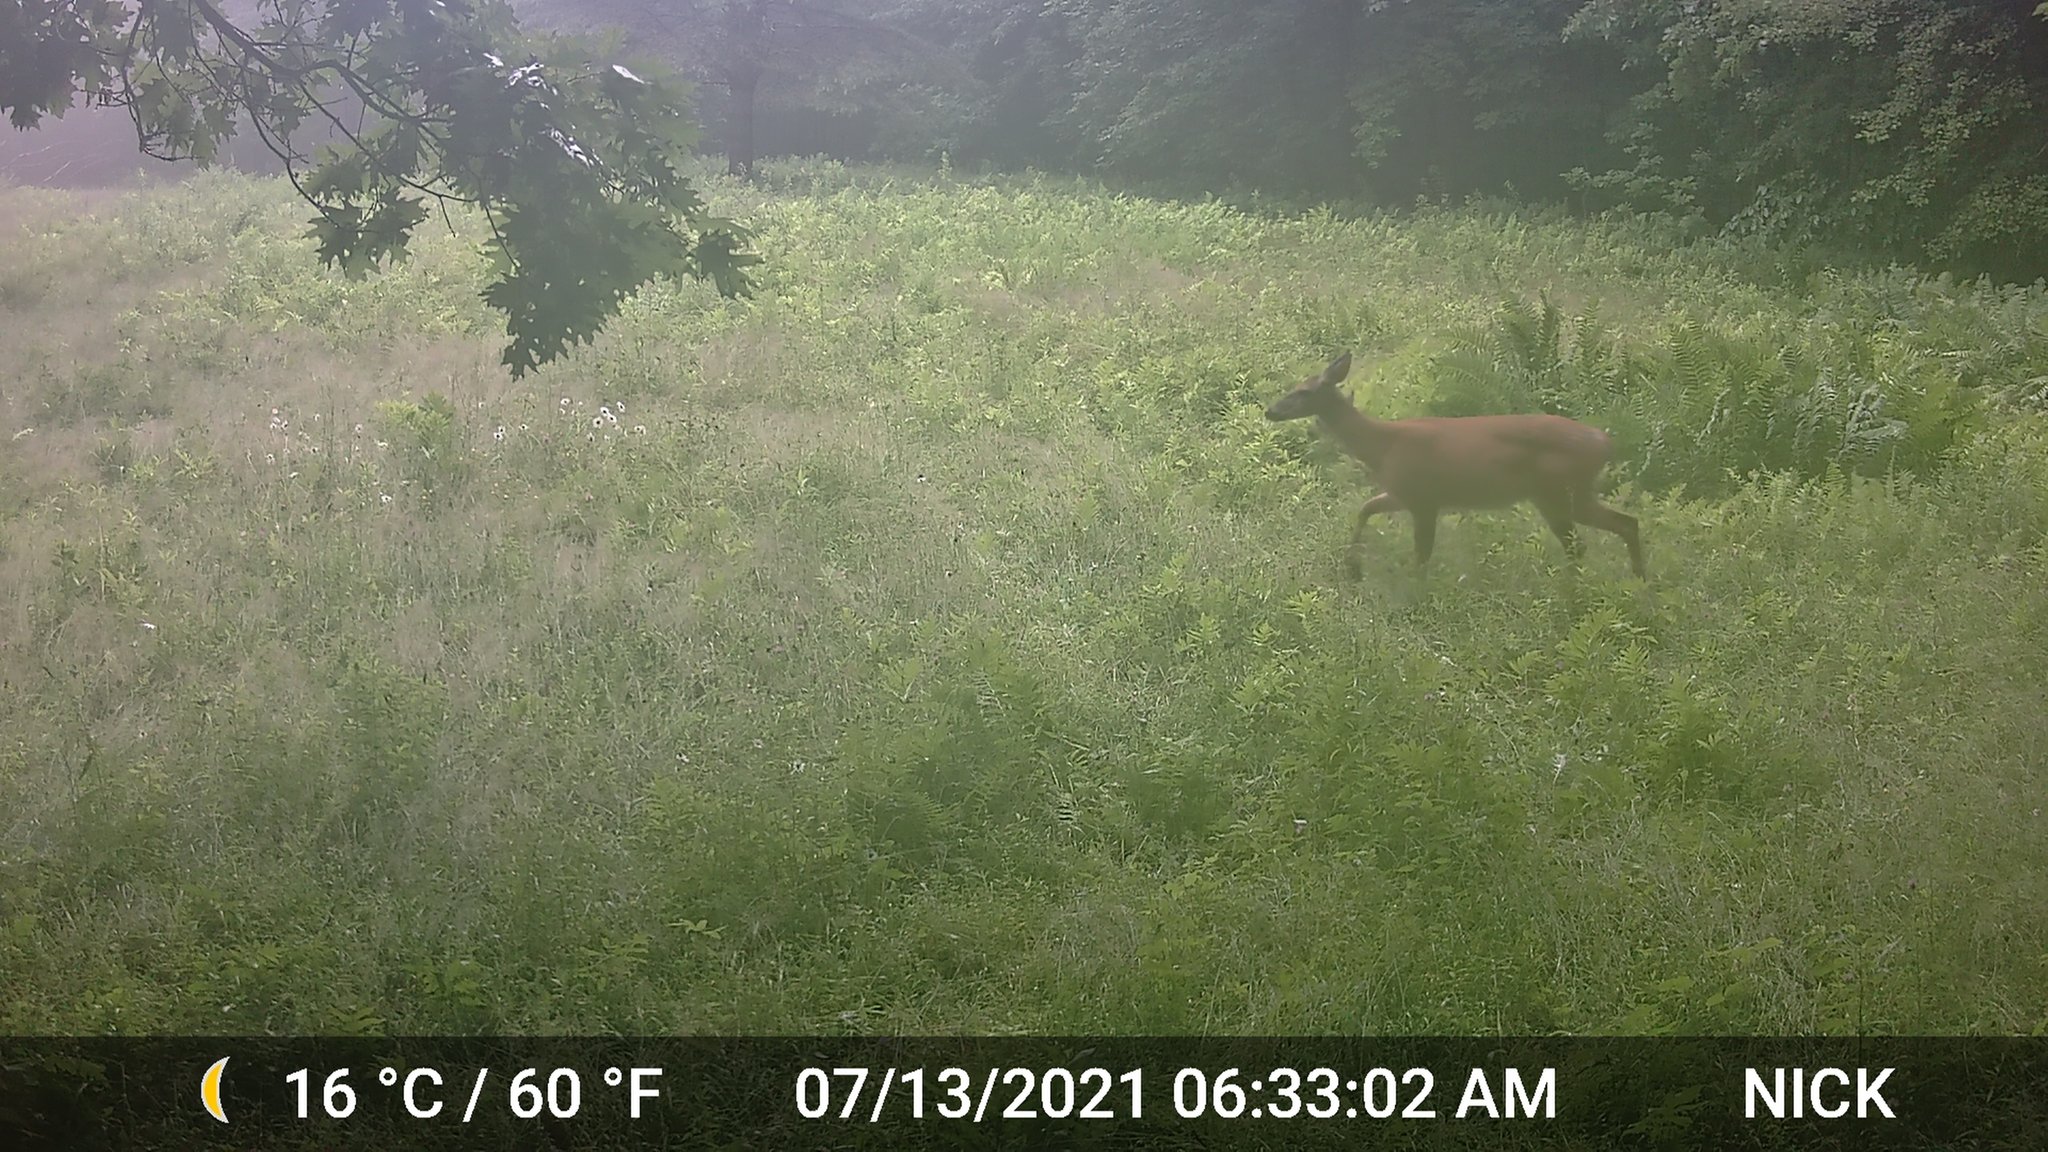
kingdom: Animalia
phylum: Chordata
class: Mammalia
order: Artiodactyla
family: Cervidae
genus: Odocoileus
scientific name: Odocoileus virginianus
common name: White-tailed deer
